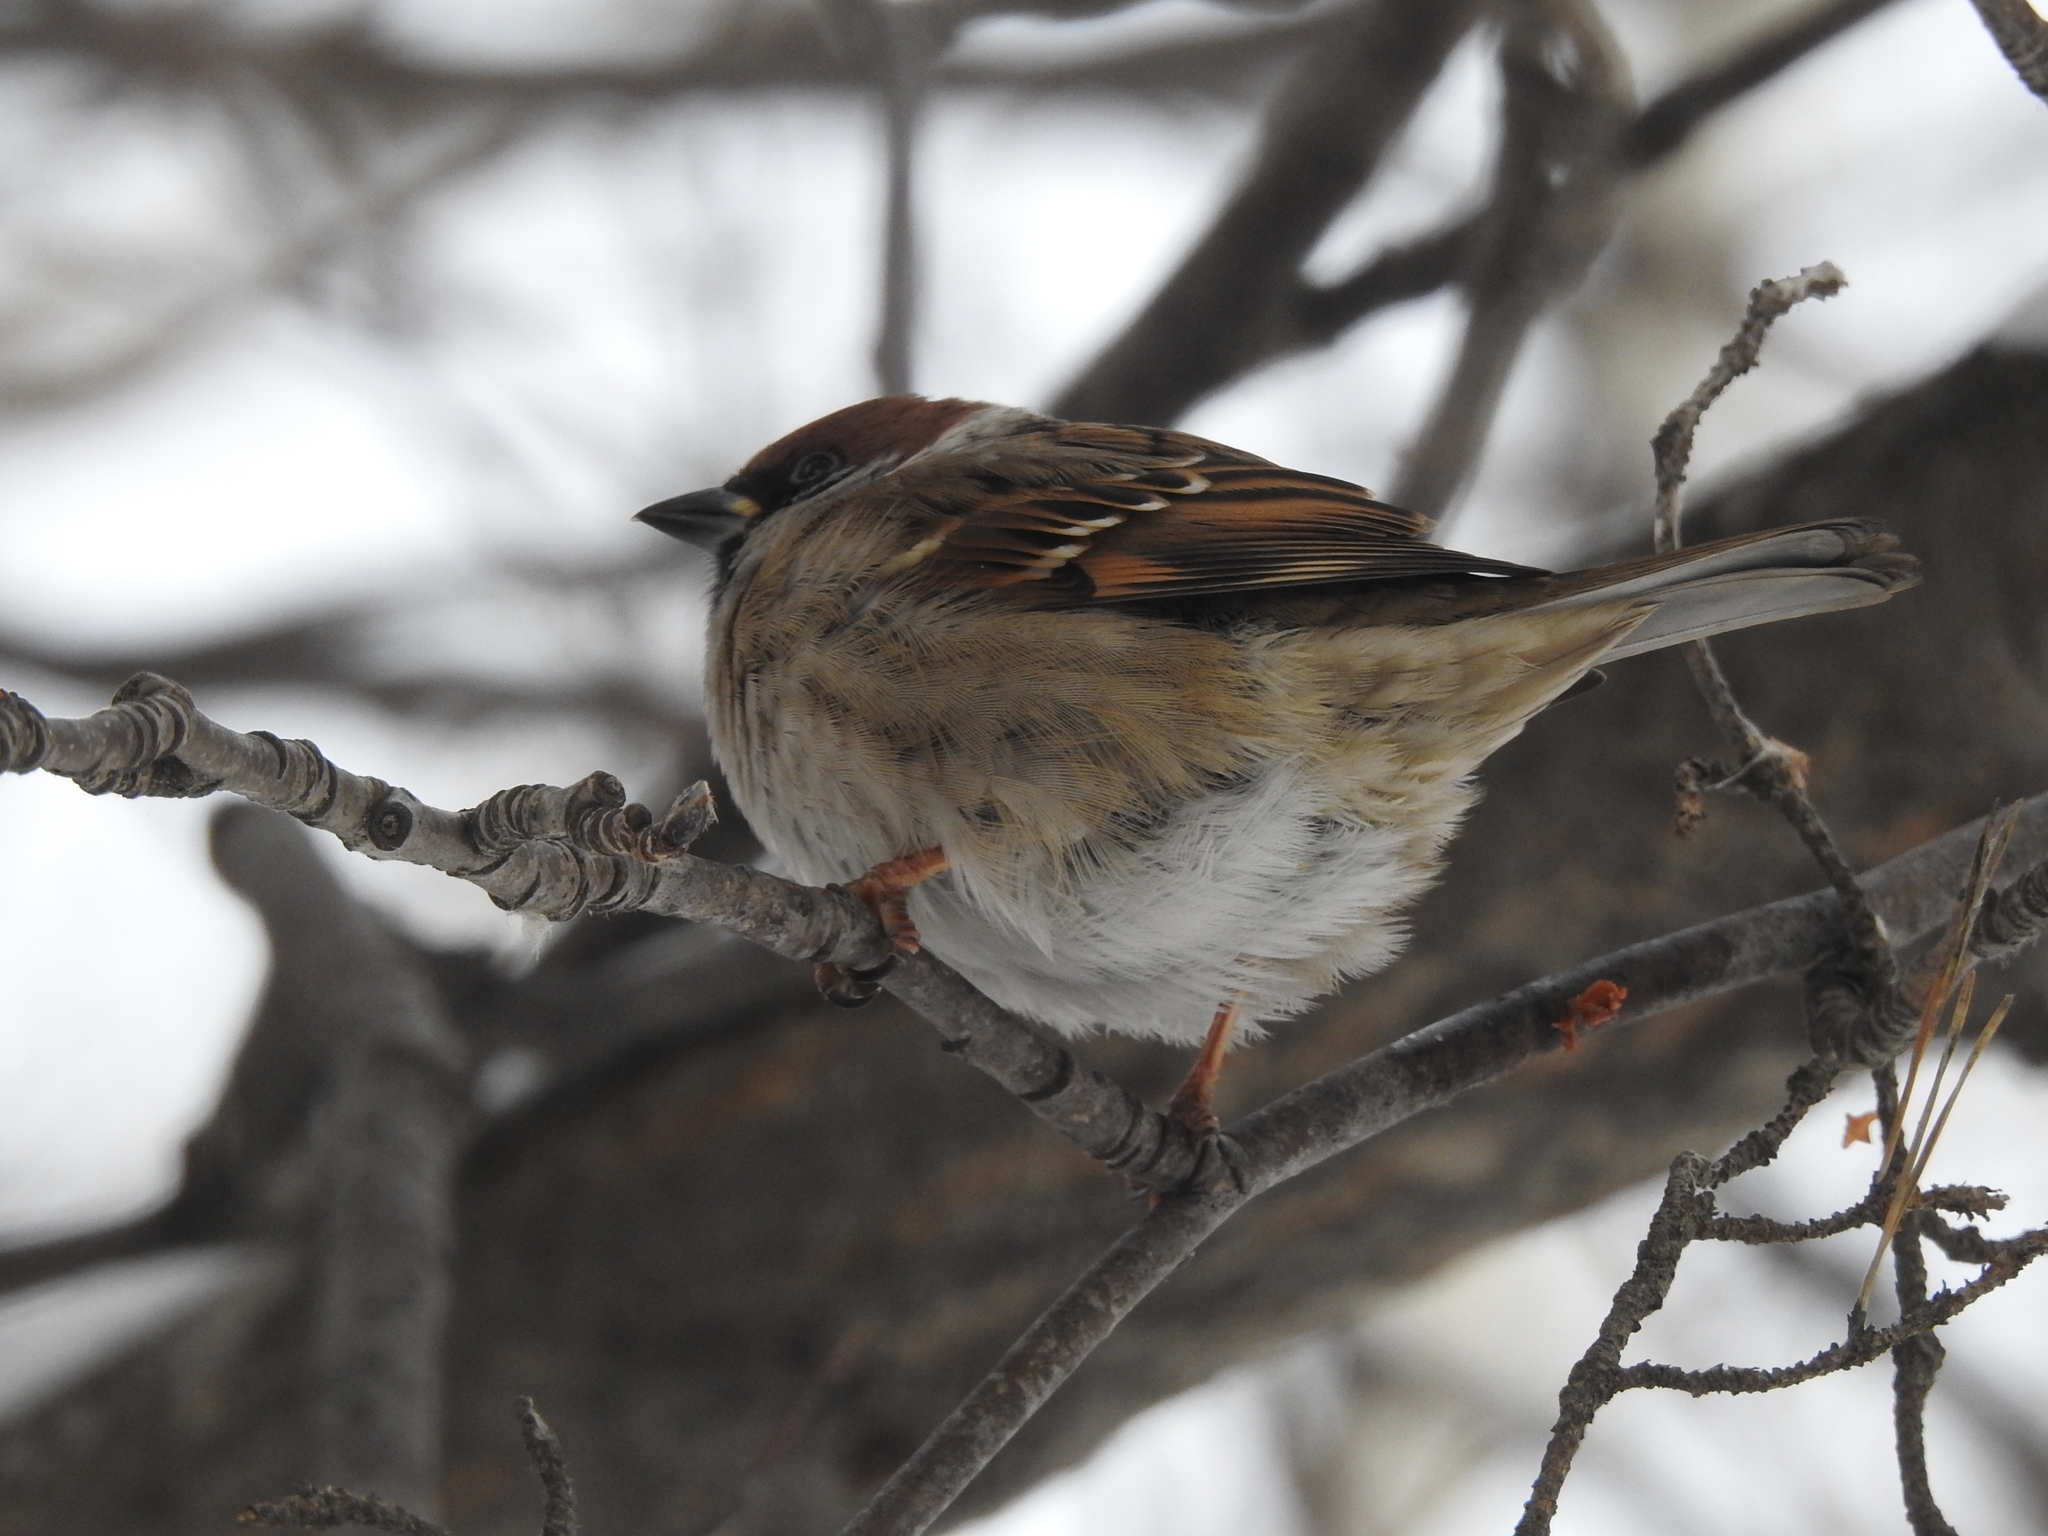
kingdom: Animalia
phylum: Chordata
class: Aves
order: Passeriformes
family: Passeridae
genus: Passer
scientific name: Passer montanus
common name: Eurasian tree sparrow
